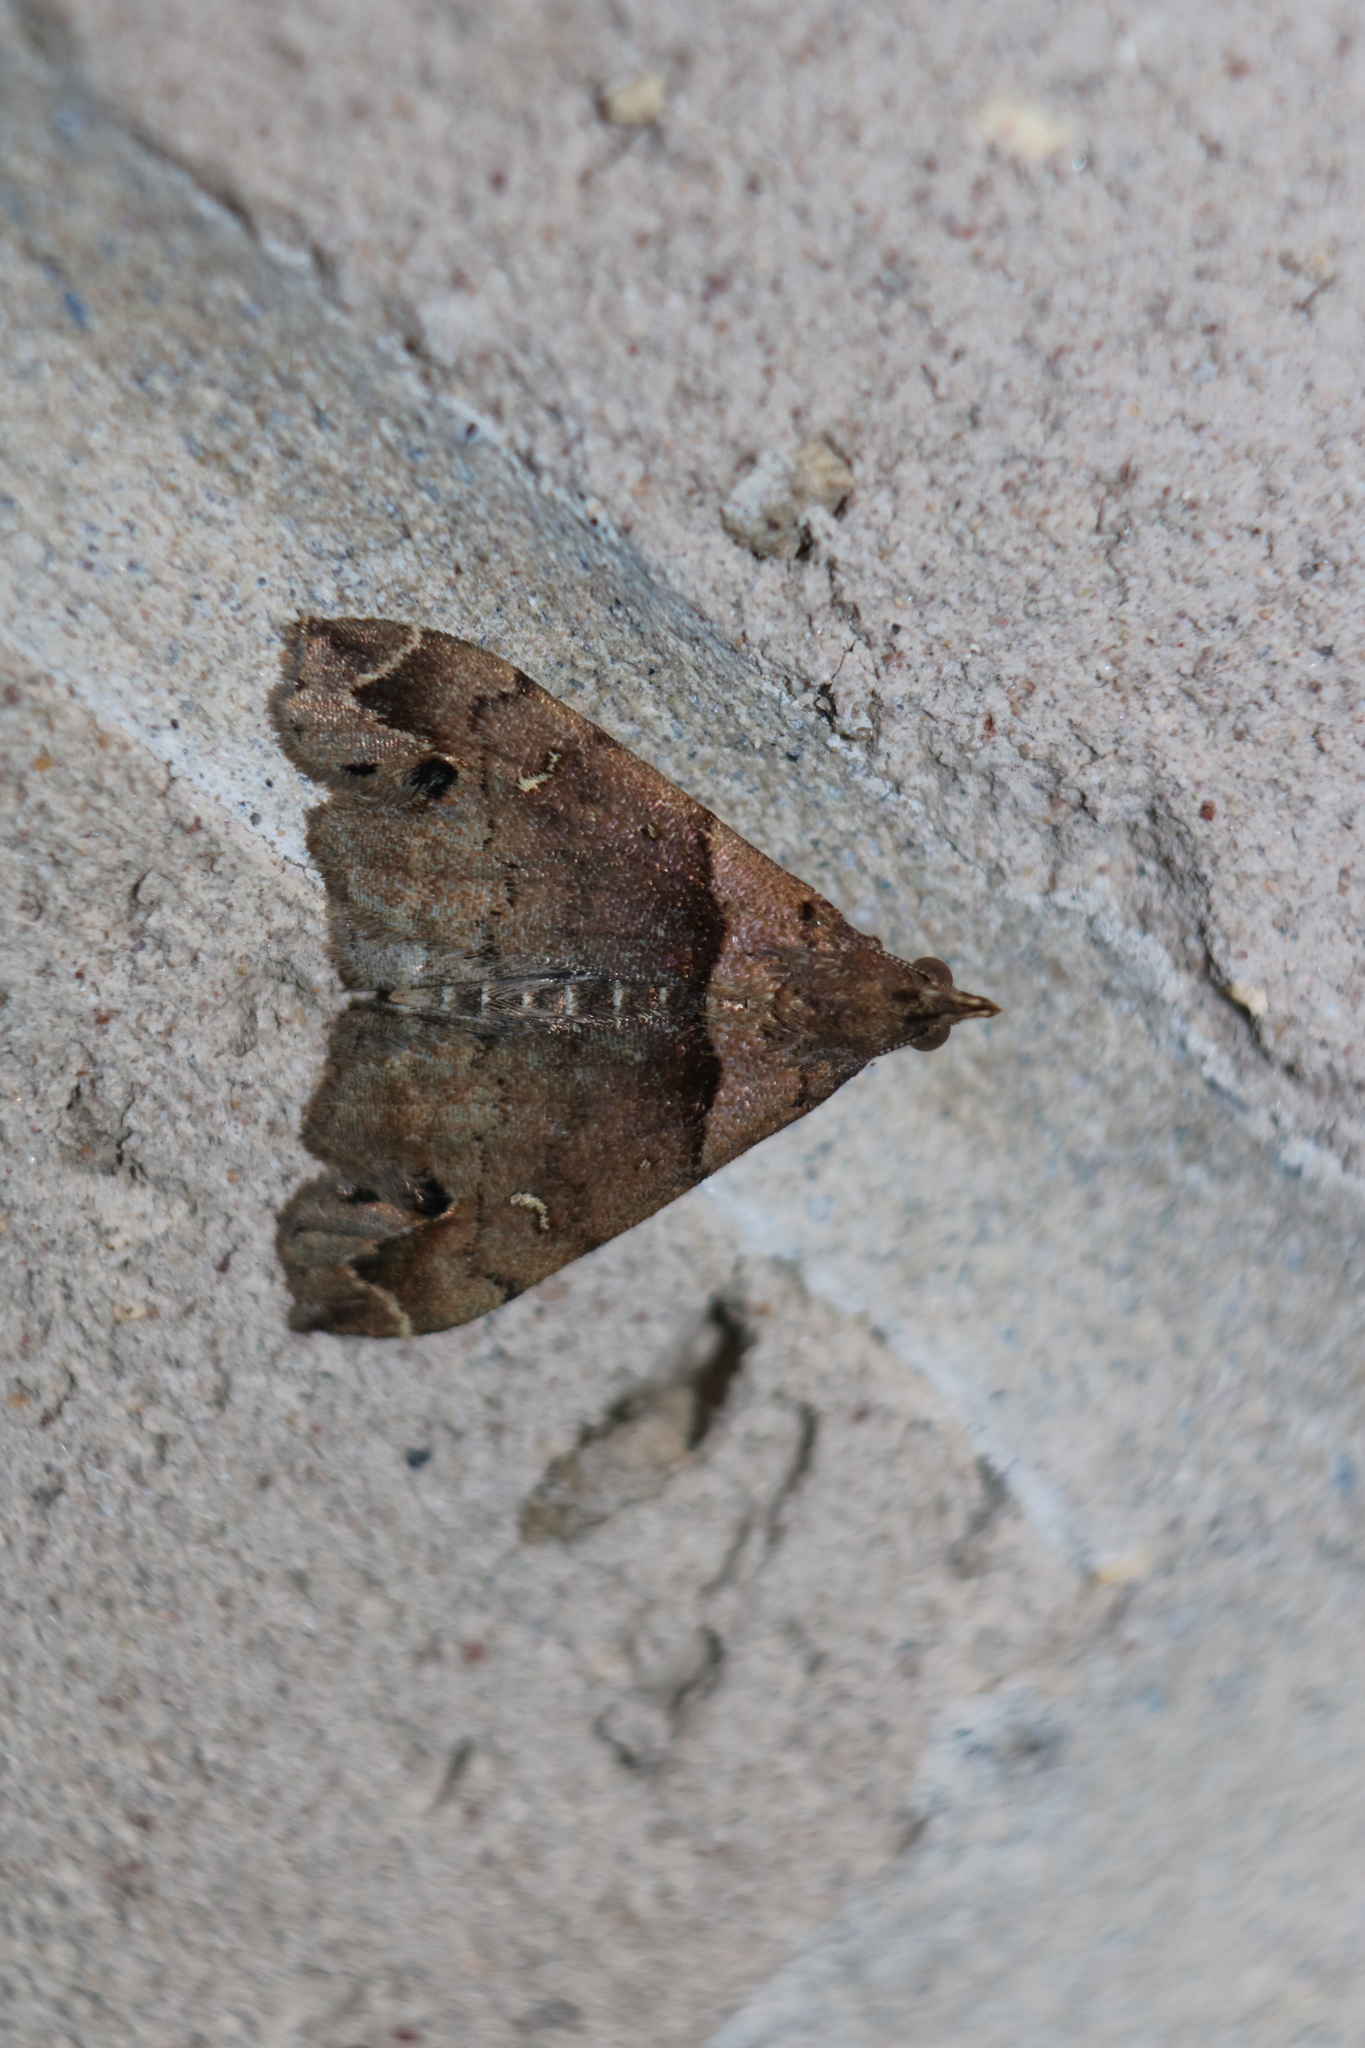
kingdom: Animalia
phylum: Arthropoda
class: Insecta
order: Lepidoptera
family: Erebidae
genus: Lascoria
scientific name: Lascoria ambigualis
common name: Ambiguous moth
